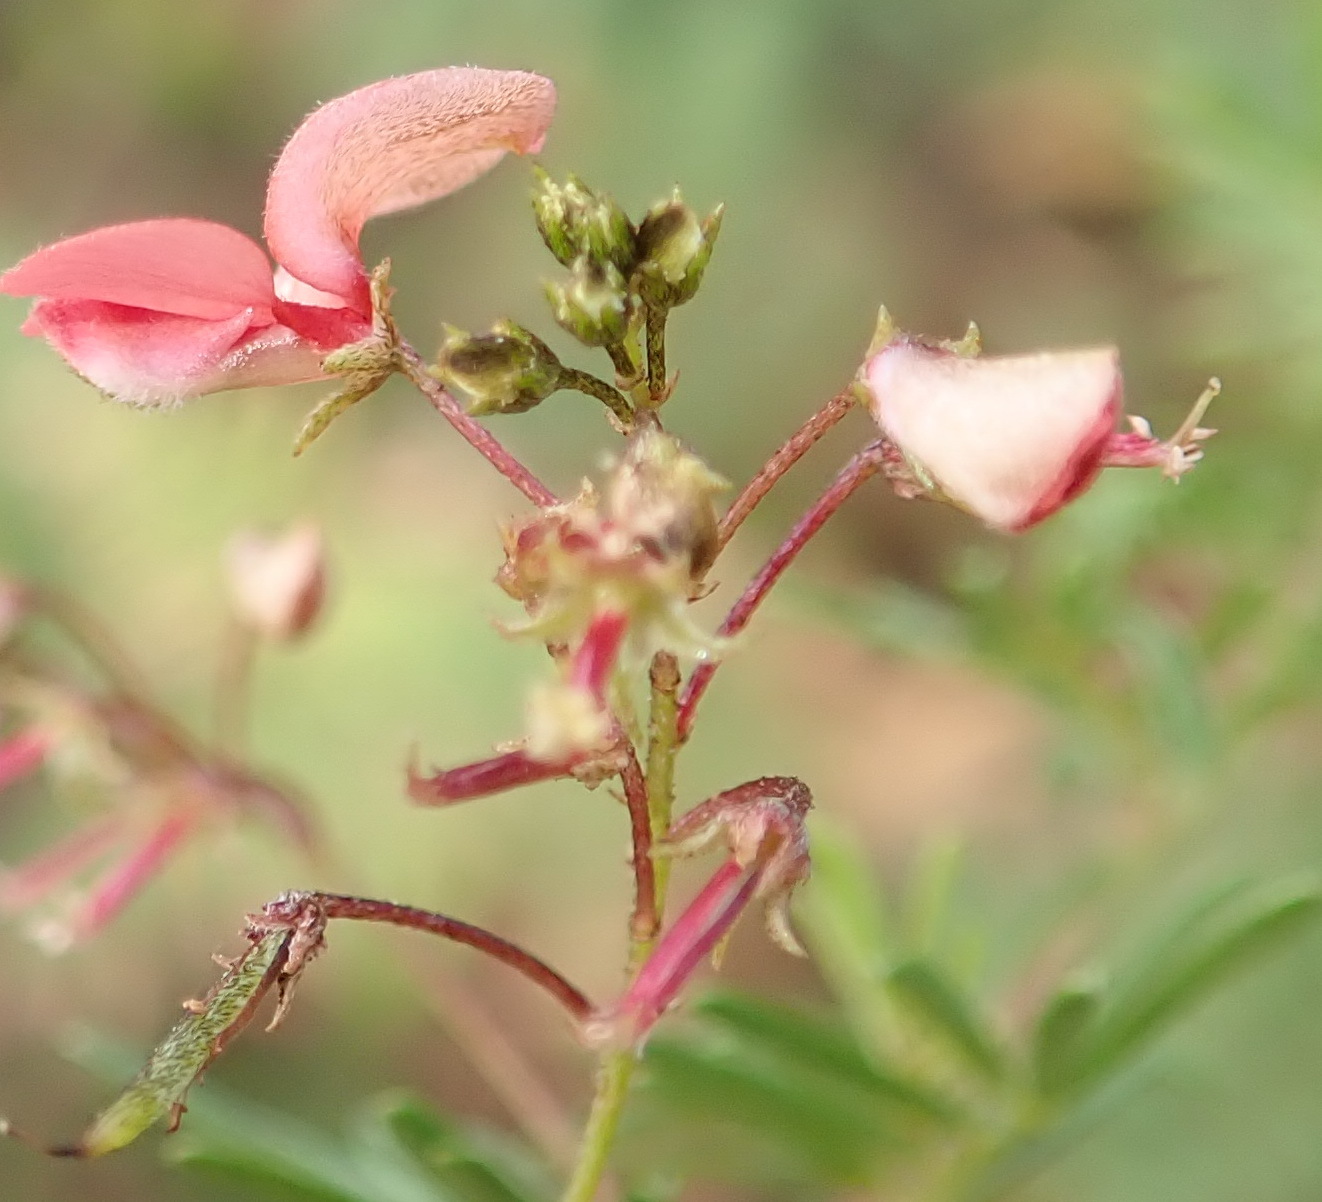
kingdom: Plantae
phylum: Tracheophyta
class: Magnoliopsida
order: Fabales
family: Fabaceae
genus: Indigofera
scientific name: Indigofera verrucosa
